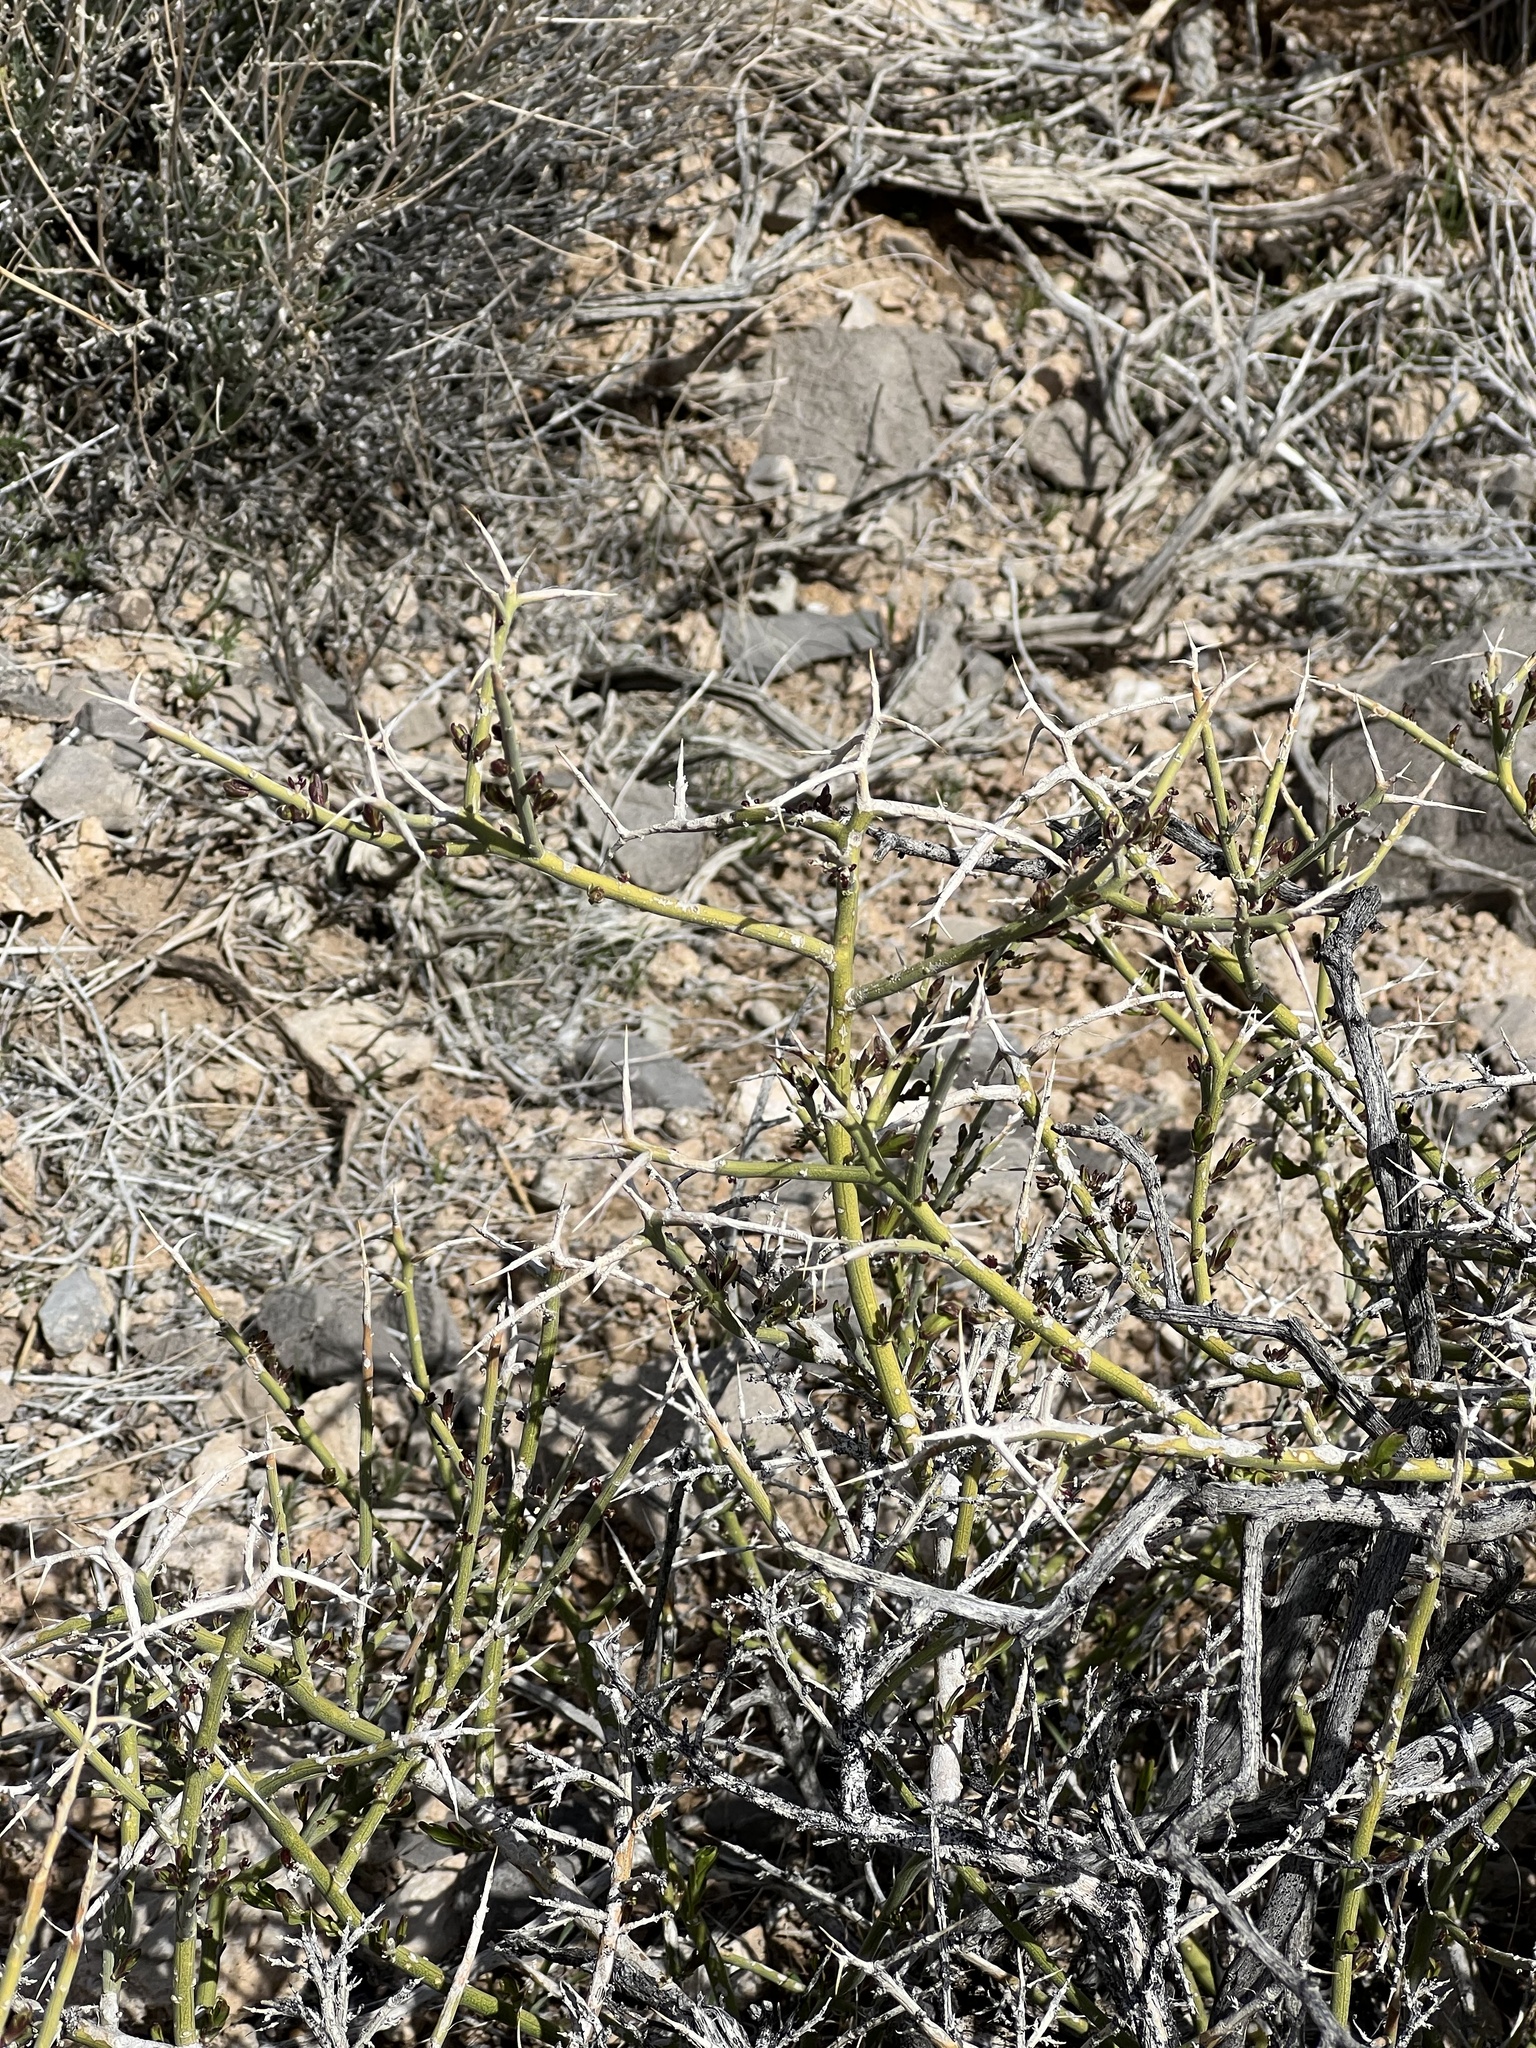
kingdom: Plantae
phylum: Tracheophyta
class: Magnoliopsida
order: Lamiales
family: Oleaceae
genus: Menodora
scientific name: Menodora spinescens
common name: Spiny menodora
